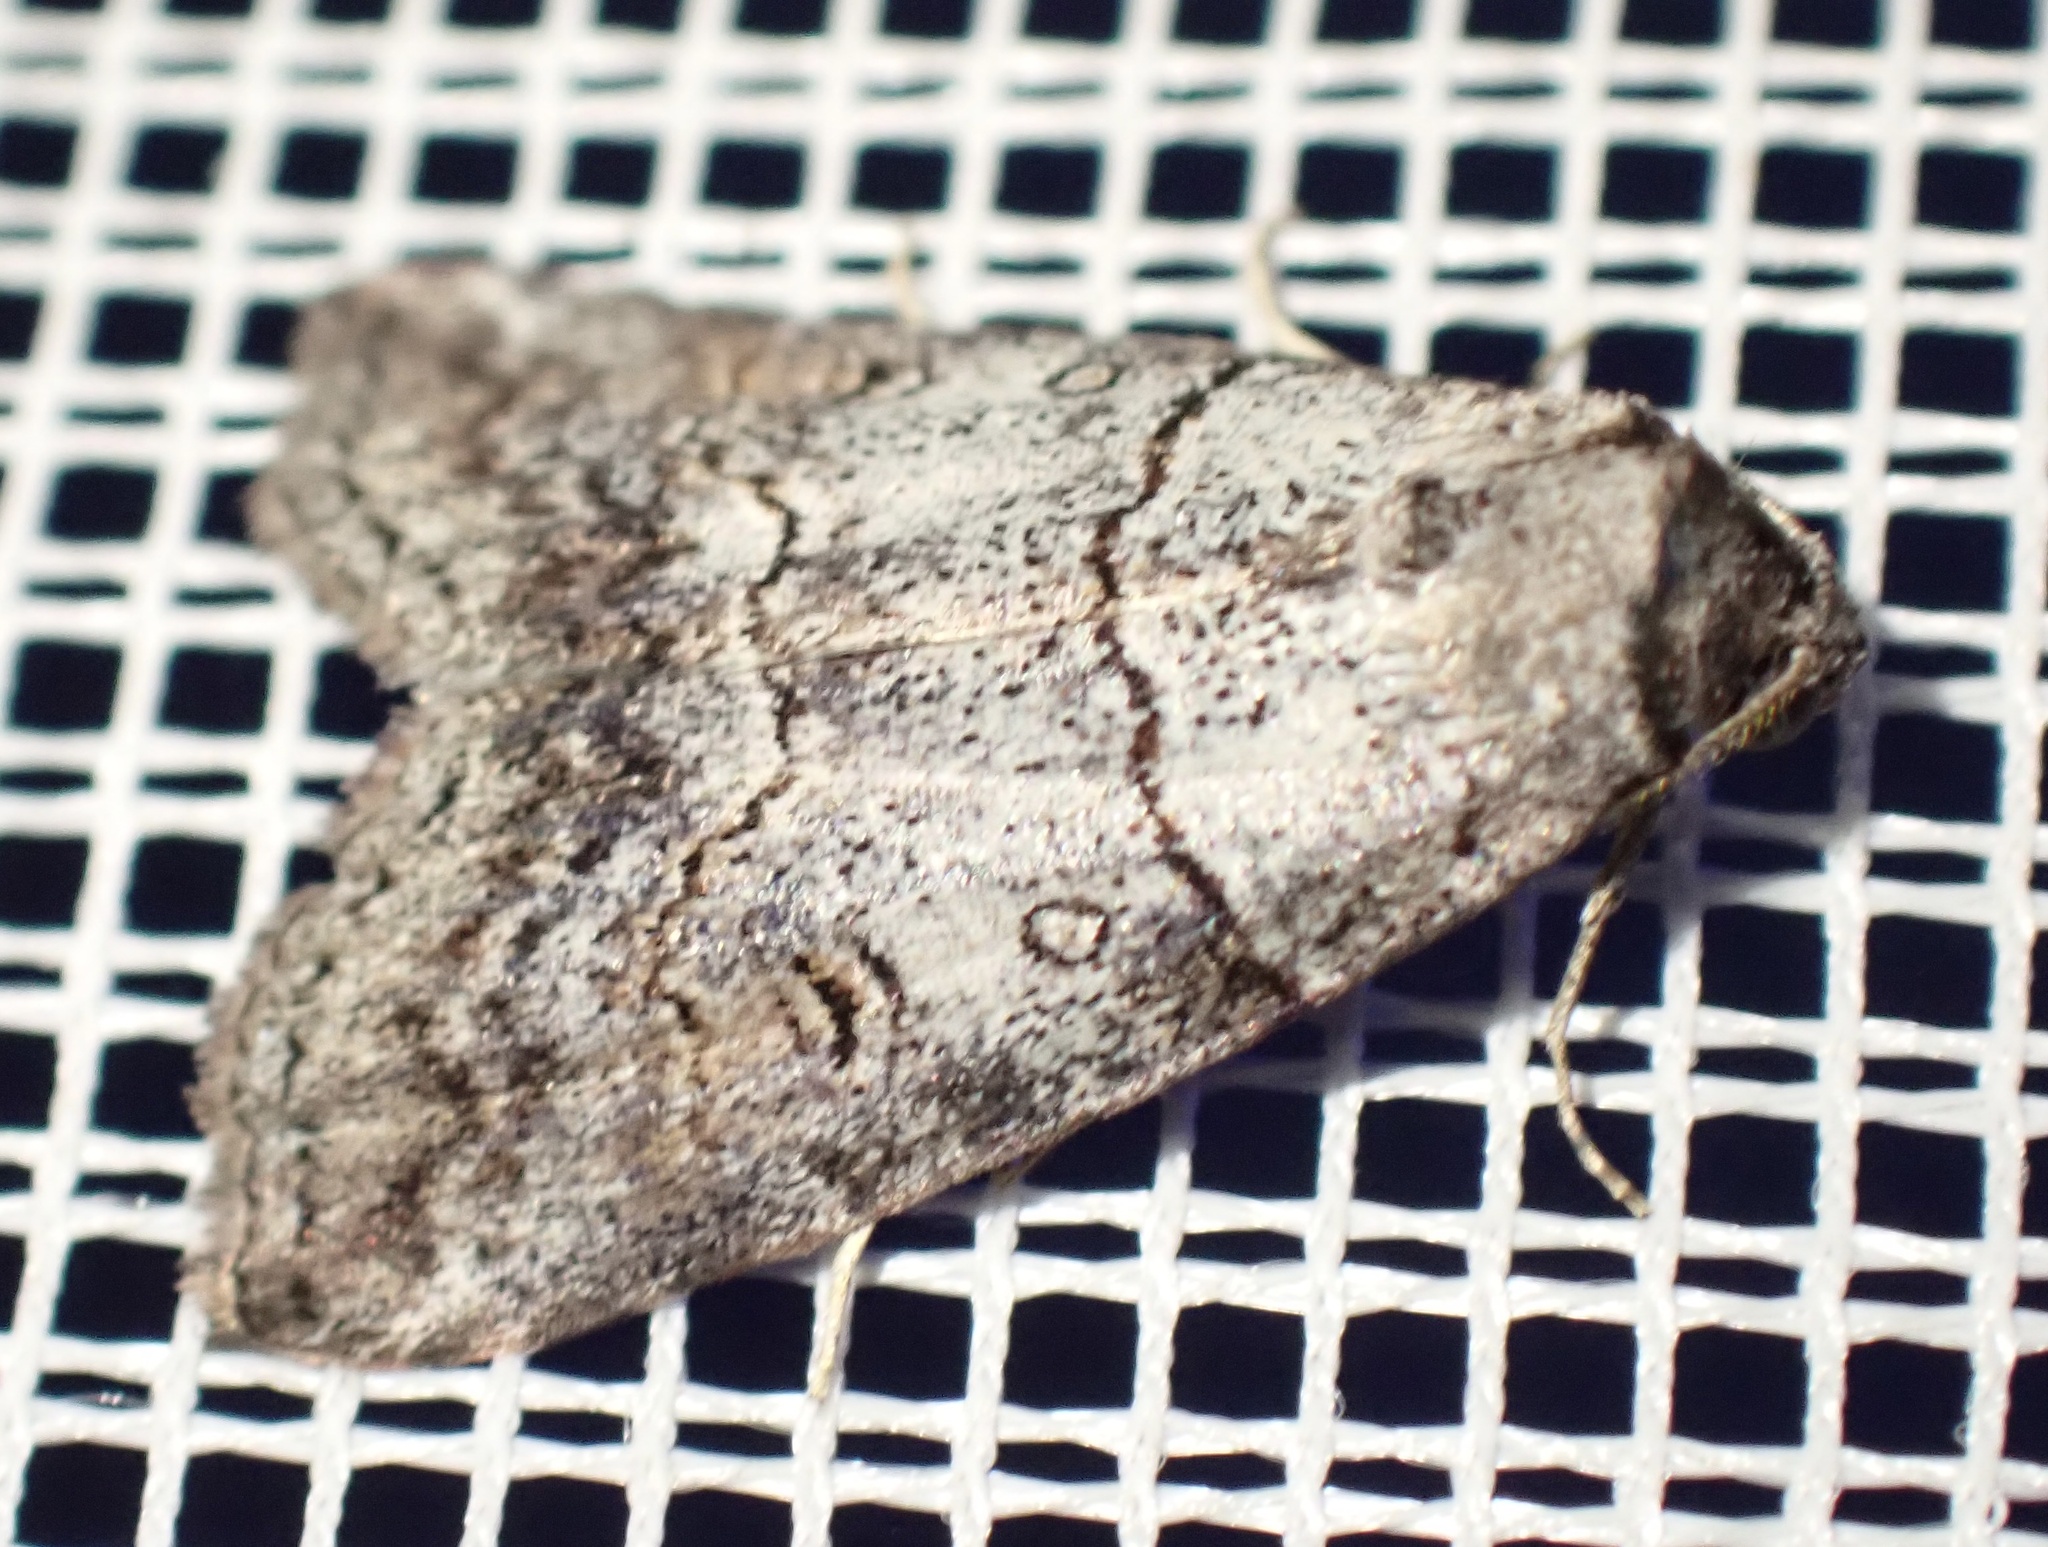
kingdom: Animalia
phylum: Arthropoda
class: Insecta
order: Lepidoptera
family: Nolidae
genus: Calathusa
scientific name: Calathusa hypotherma
